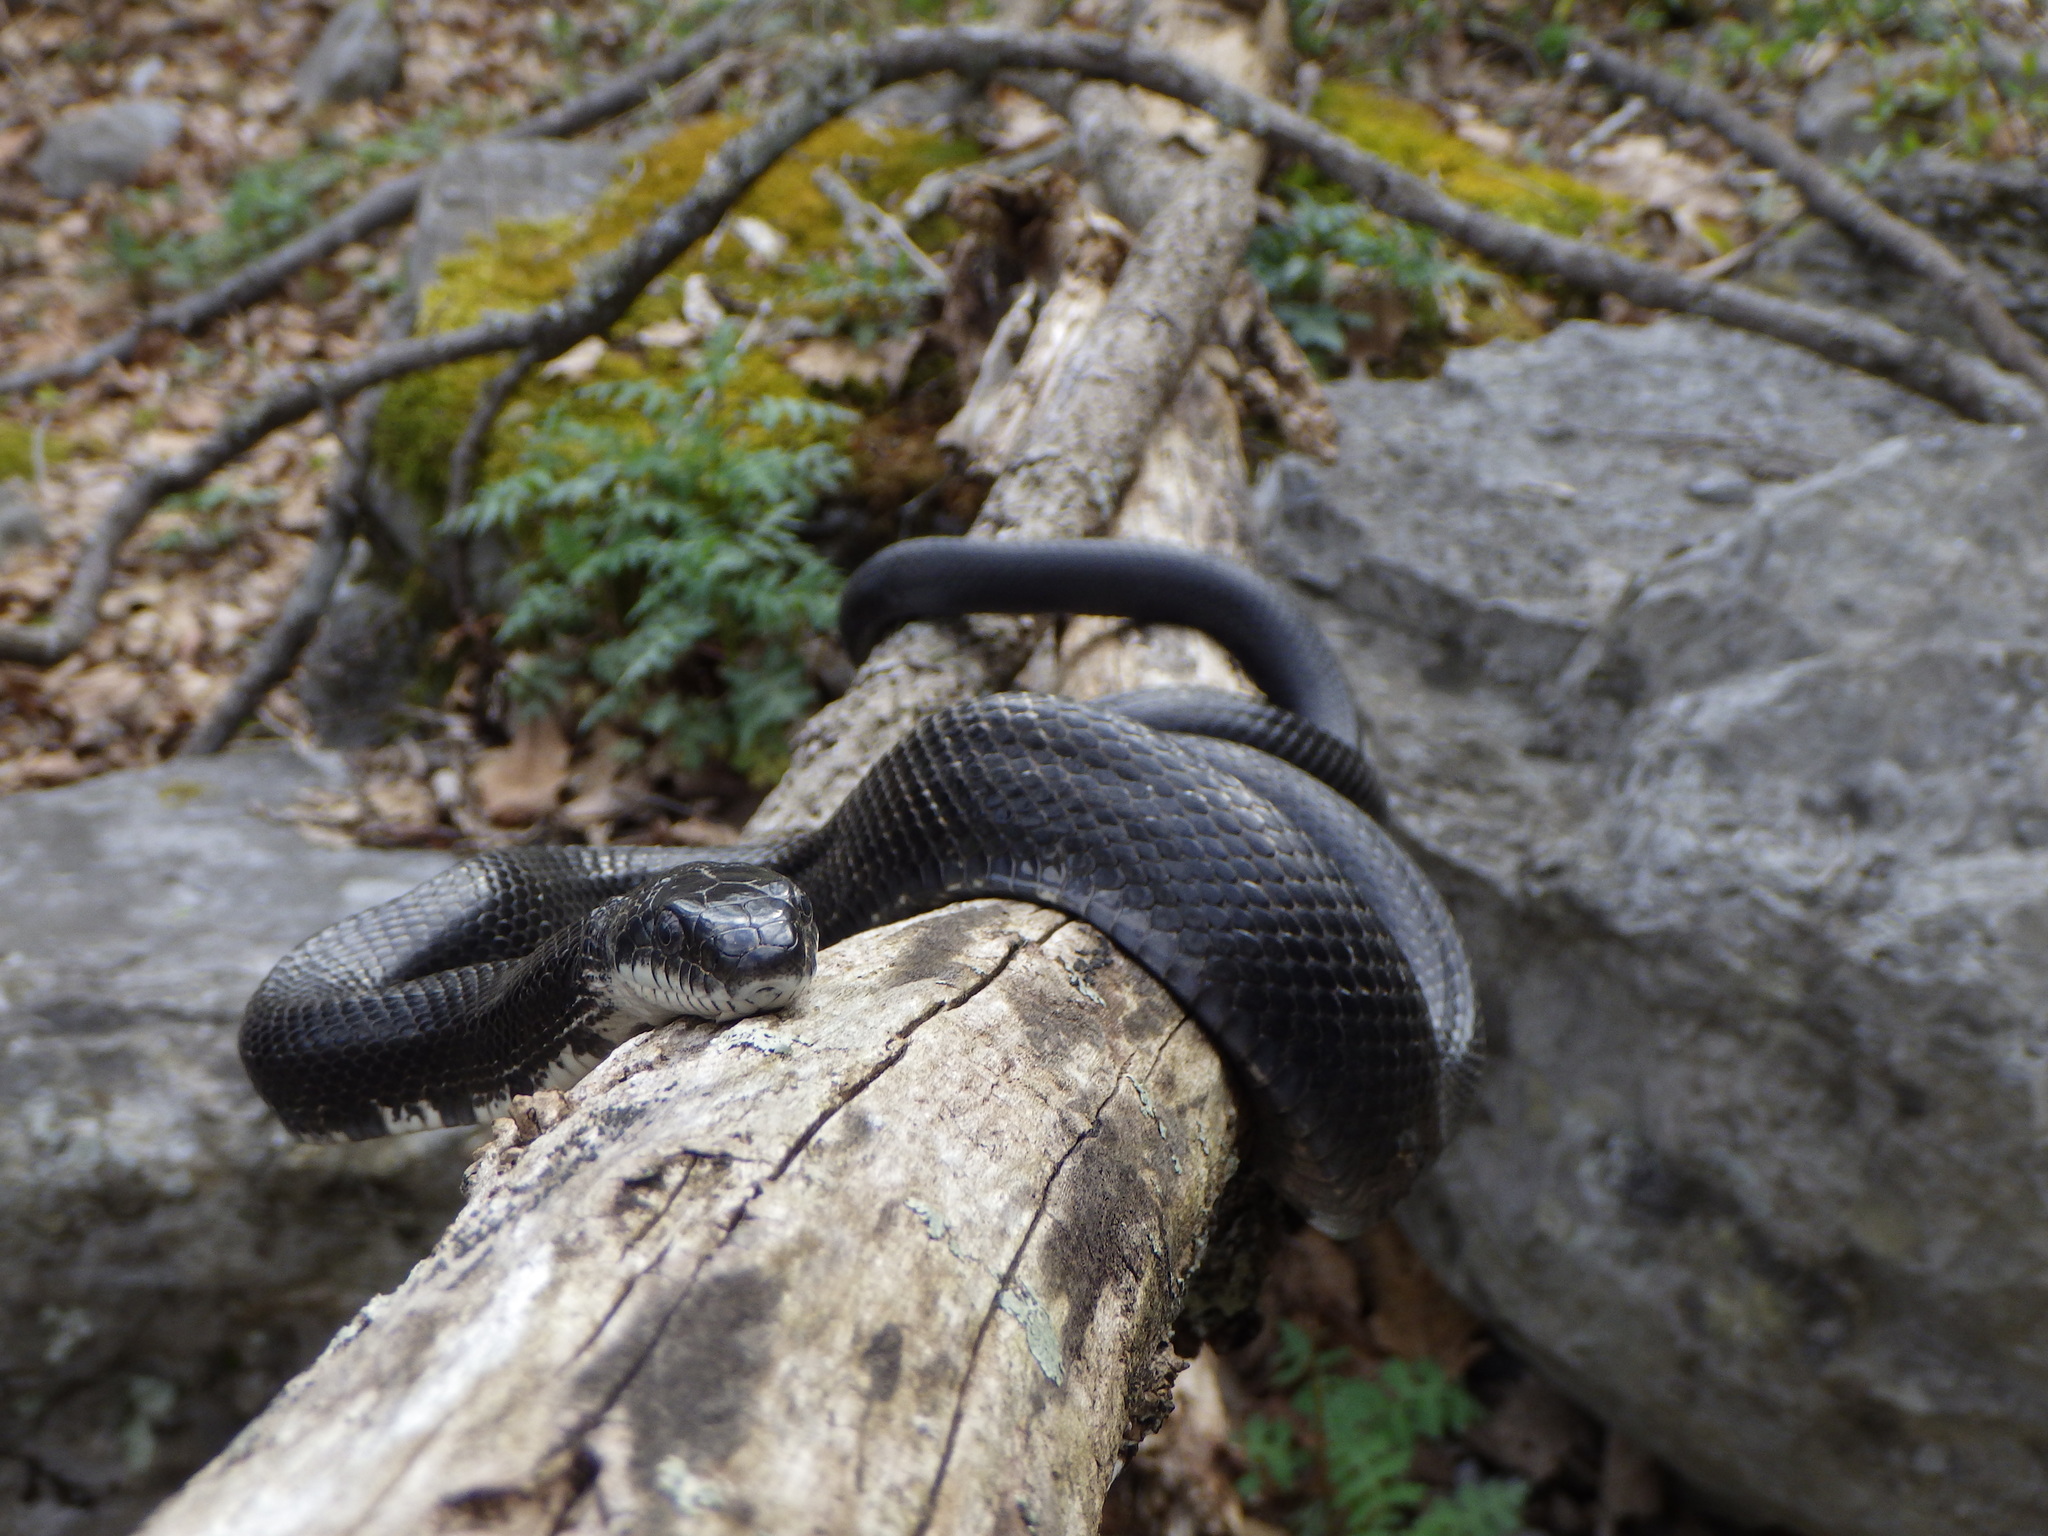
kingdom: Animalia
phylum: Chordata
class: Squamata
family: Colubridae
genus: Pantherophis
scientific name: Pantherophis
